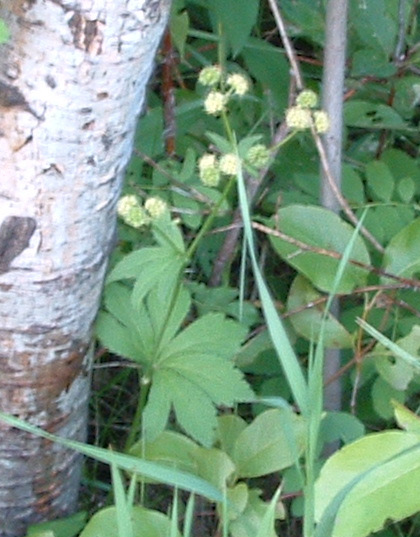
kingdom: Plantae
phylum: Tracheophyta
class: Magnoliopsida
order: Apiales
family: Apiaceae
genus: Sanicula
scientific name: Sanicula marilandica
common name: Black snakeroot
